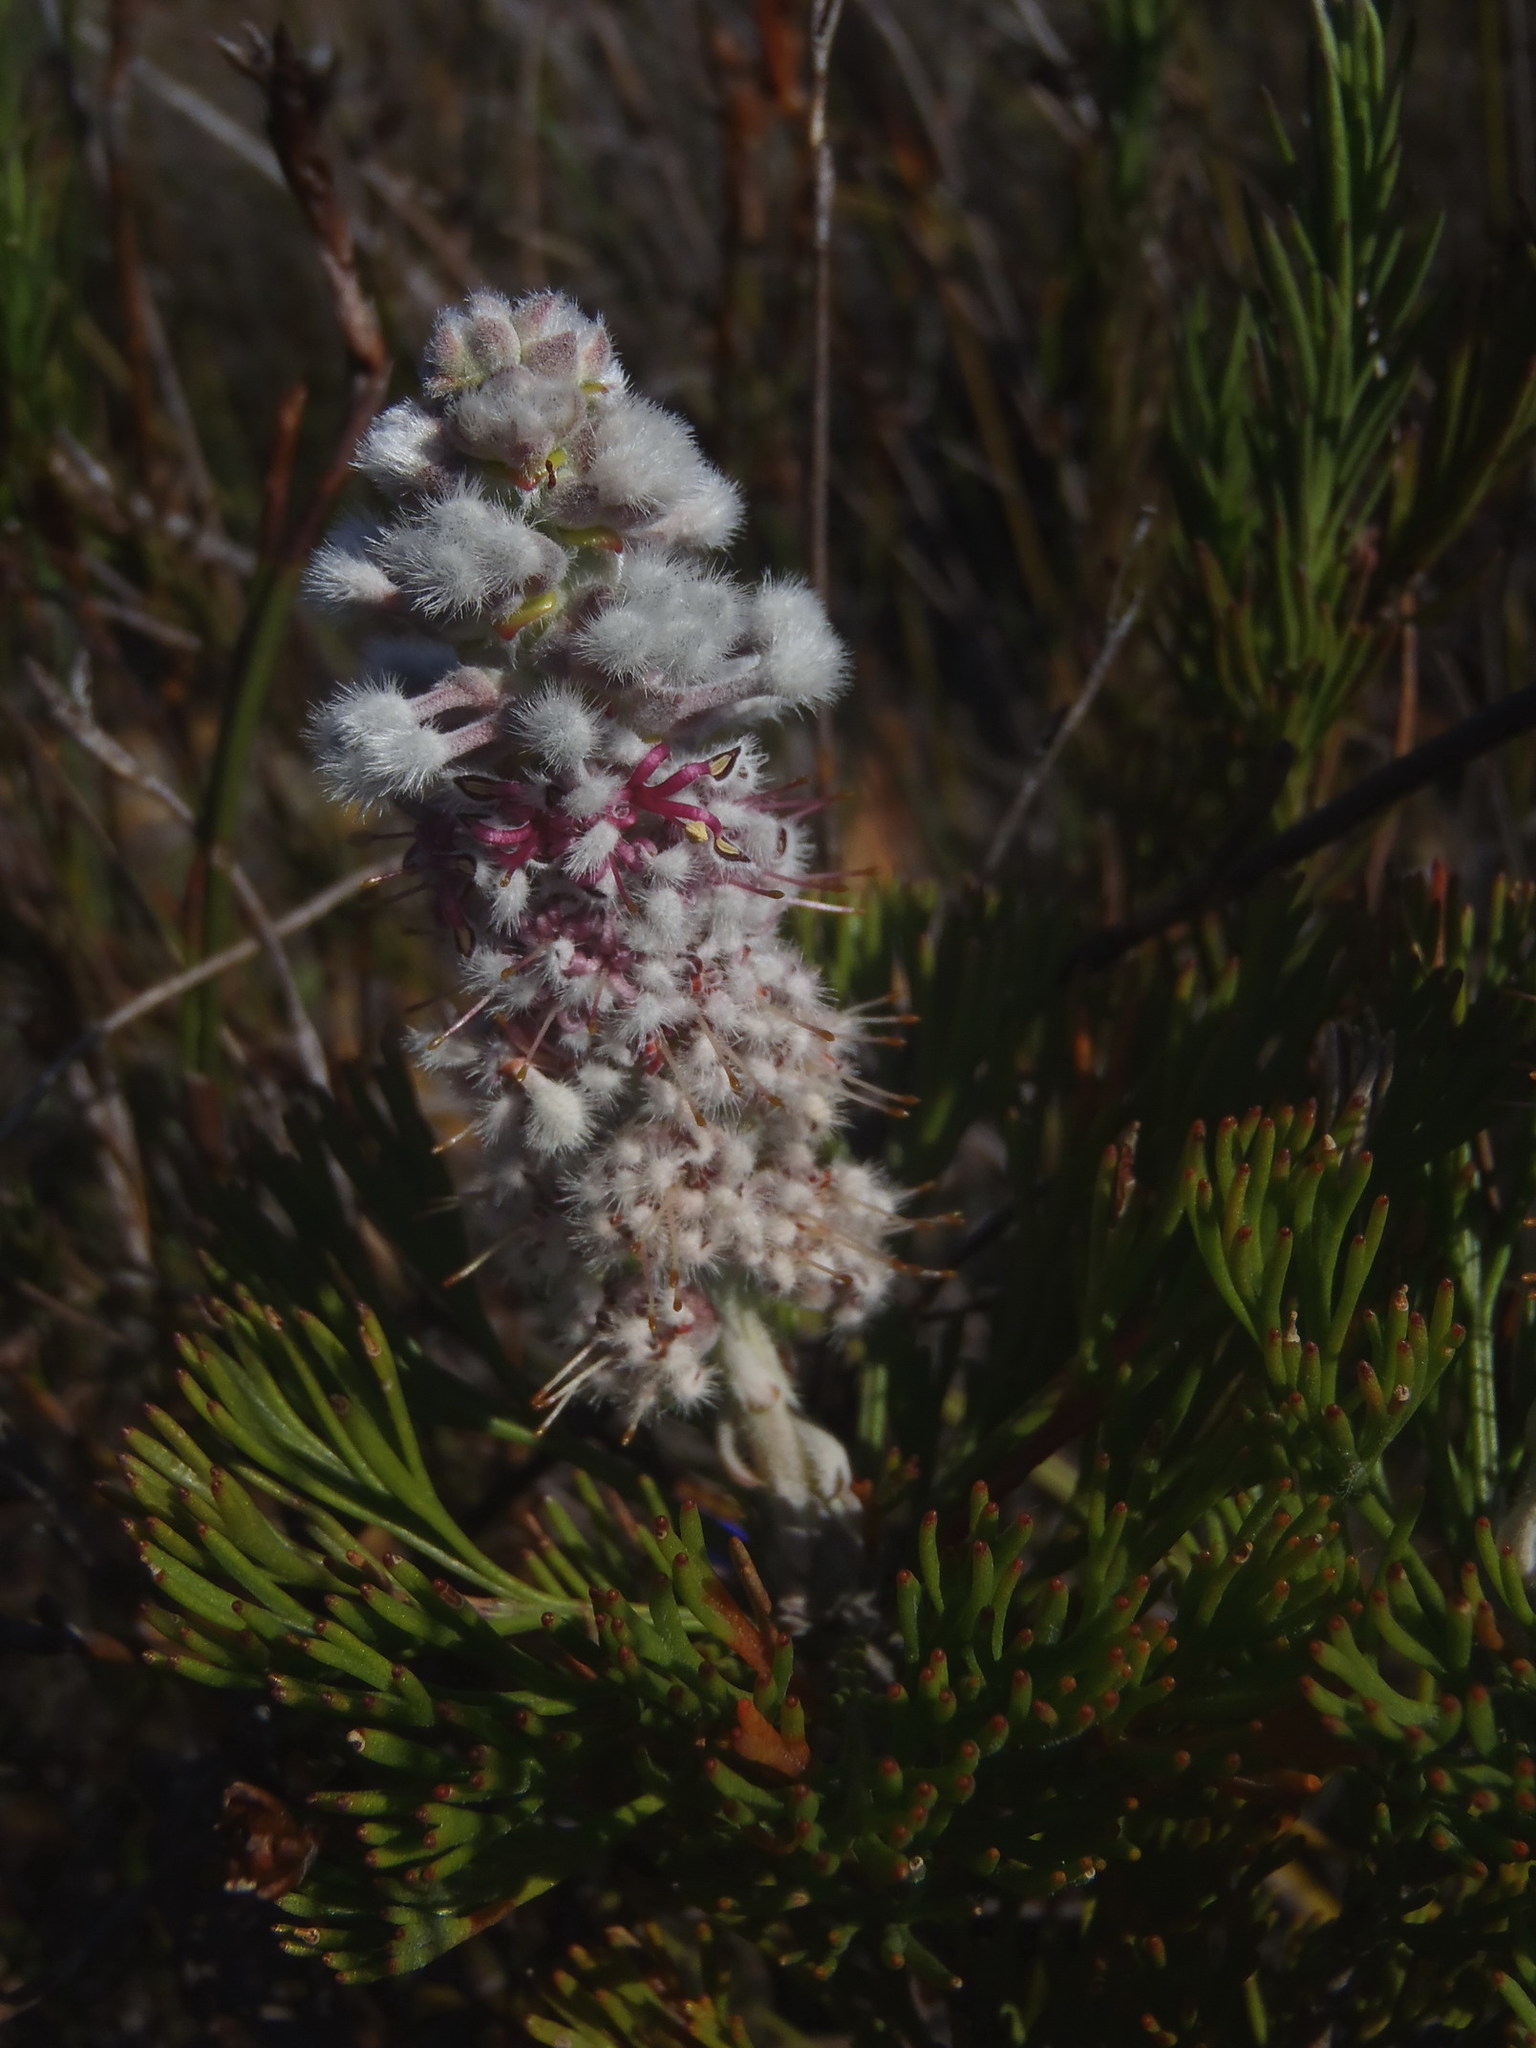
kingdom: Plantae
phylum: Tracheophyta
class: Magnoliopsida
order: Proteales
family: Proteaceae
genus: Paranomus
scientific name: Paranomus abrotanifolius
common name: Bredasdorp sceptre
